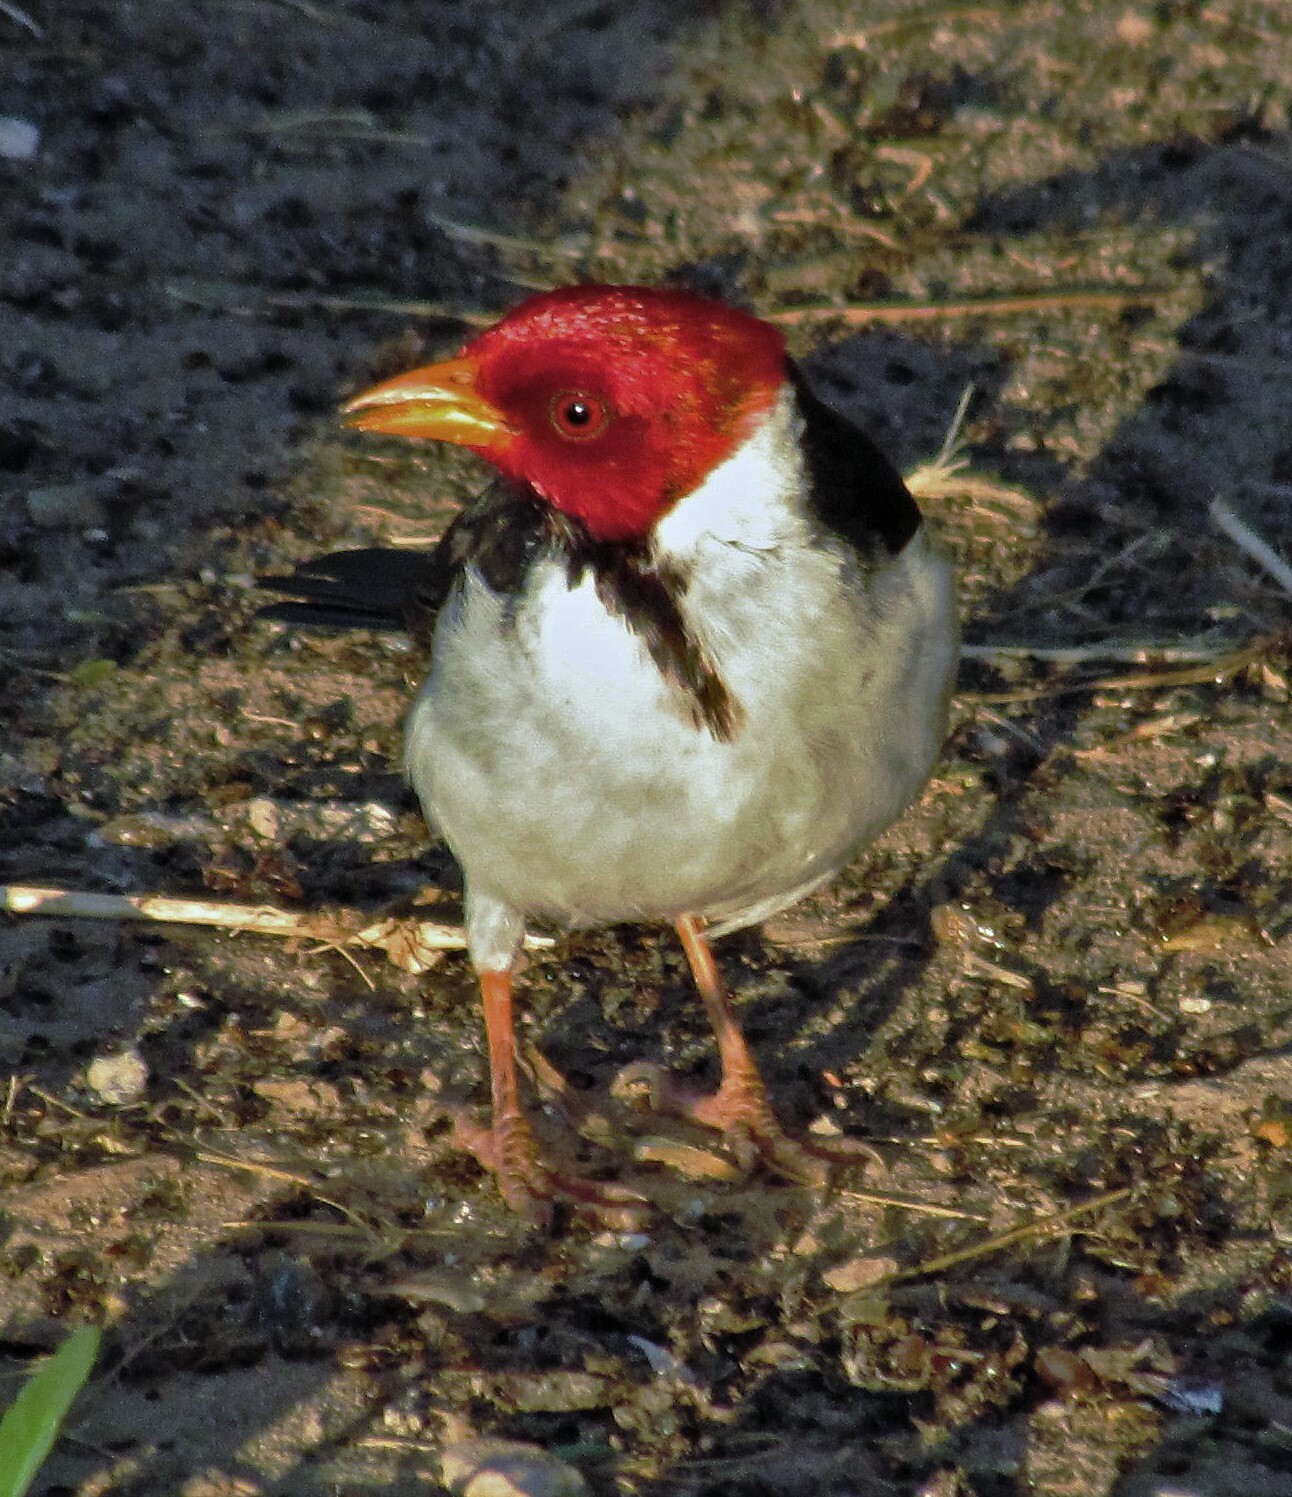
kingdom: Animalia
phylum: Chordata
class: Aves
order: Passeriformes
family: Thraupidae
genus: Paroaria
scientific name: Paroaria capitata
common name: Yellow-billed cardinal
